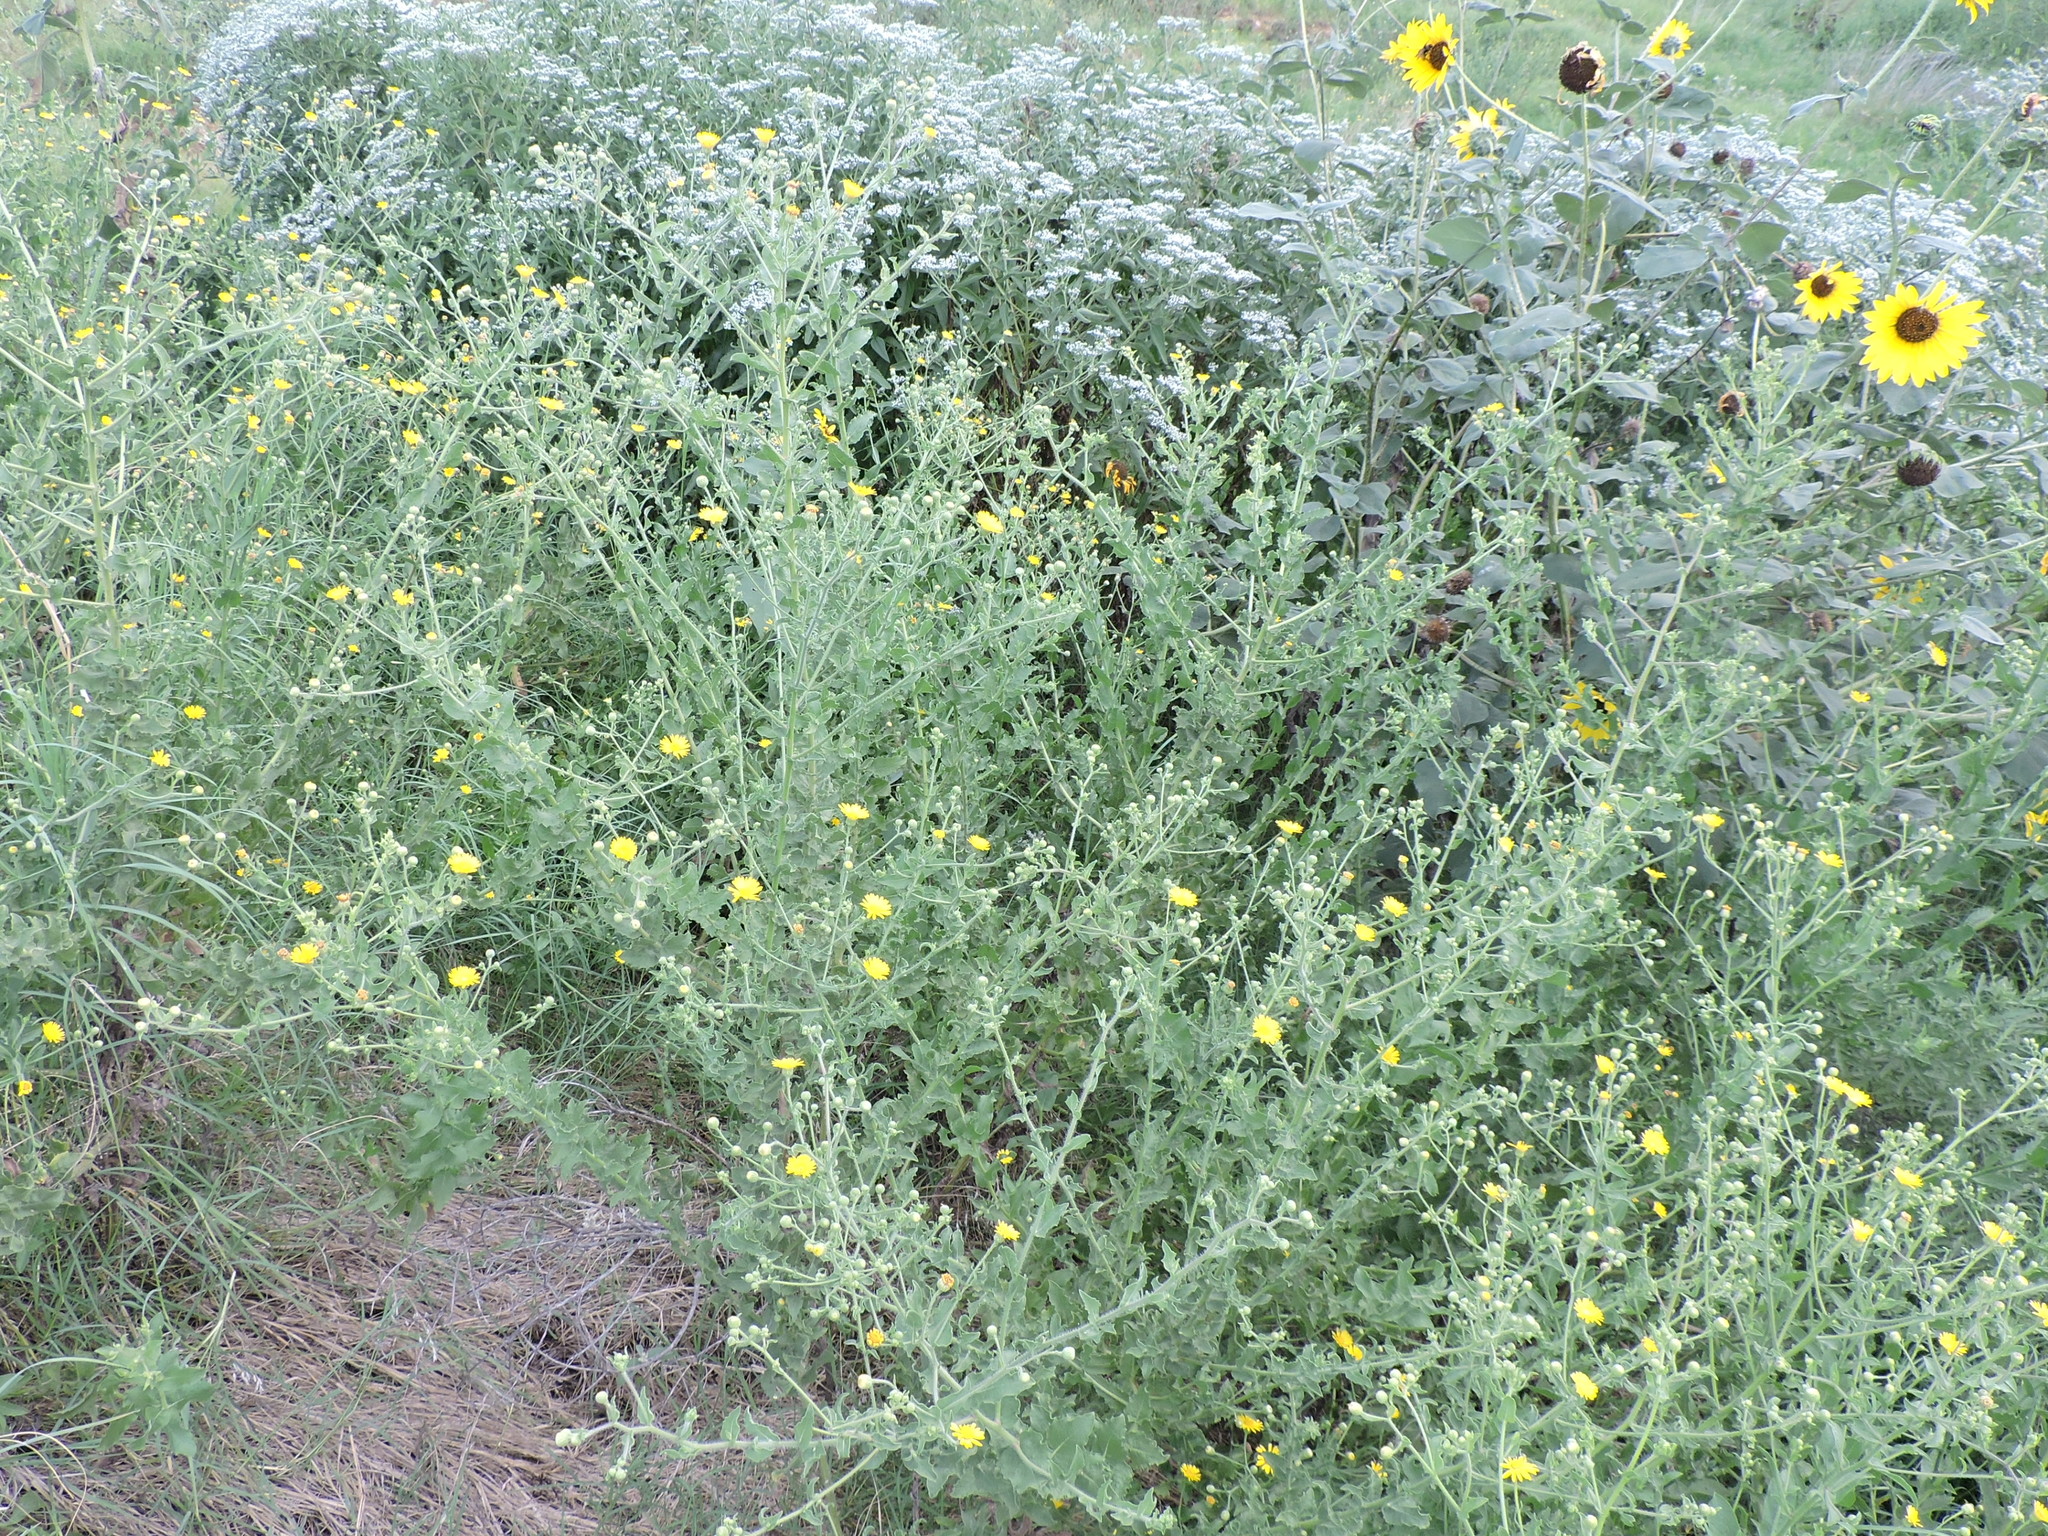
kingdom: Plantae
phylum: Tracheophyta
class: Magnoliopsida
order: Asterales
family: Asteraceae
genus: Heterotheca
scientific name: Heterotheca subaxillaris
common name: Camphorweed
